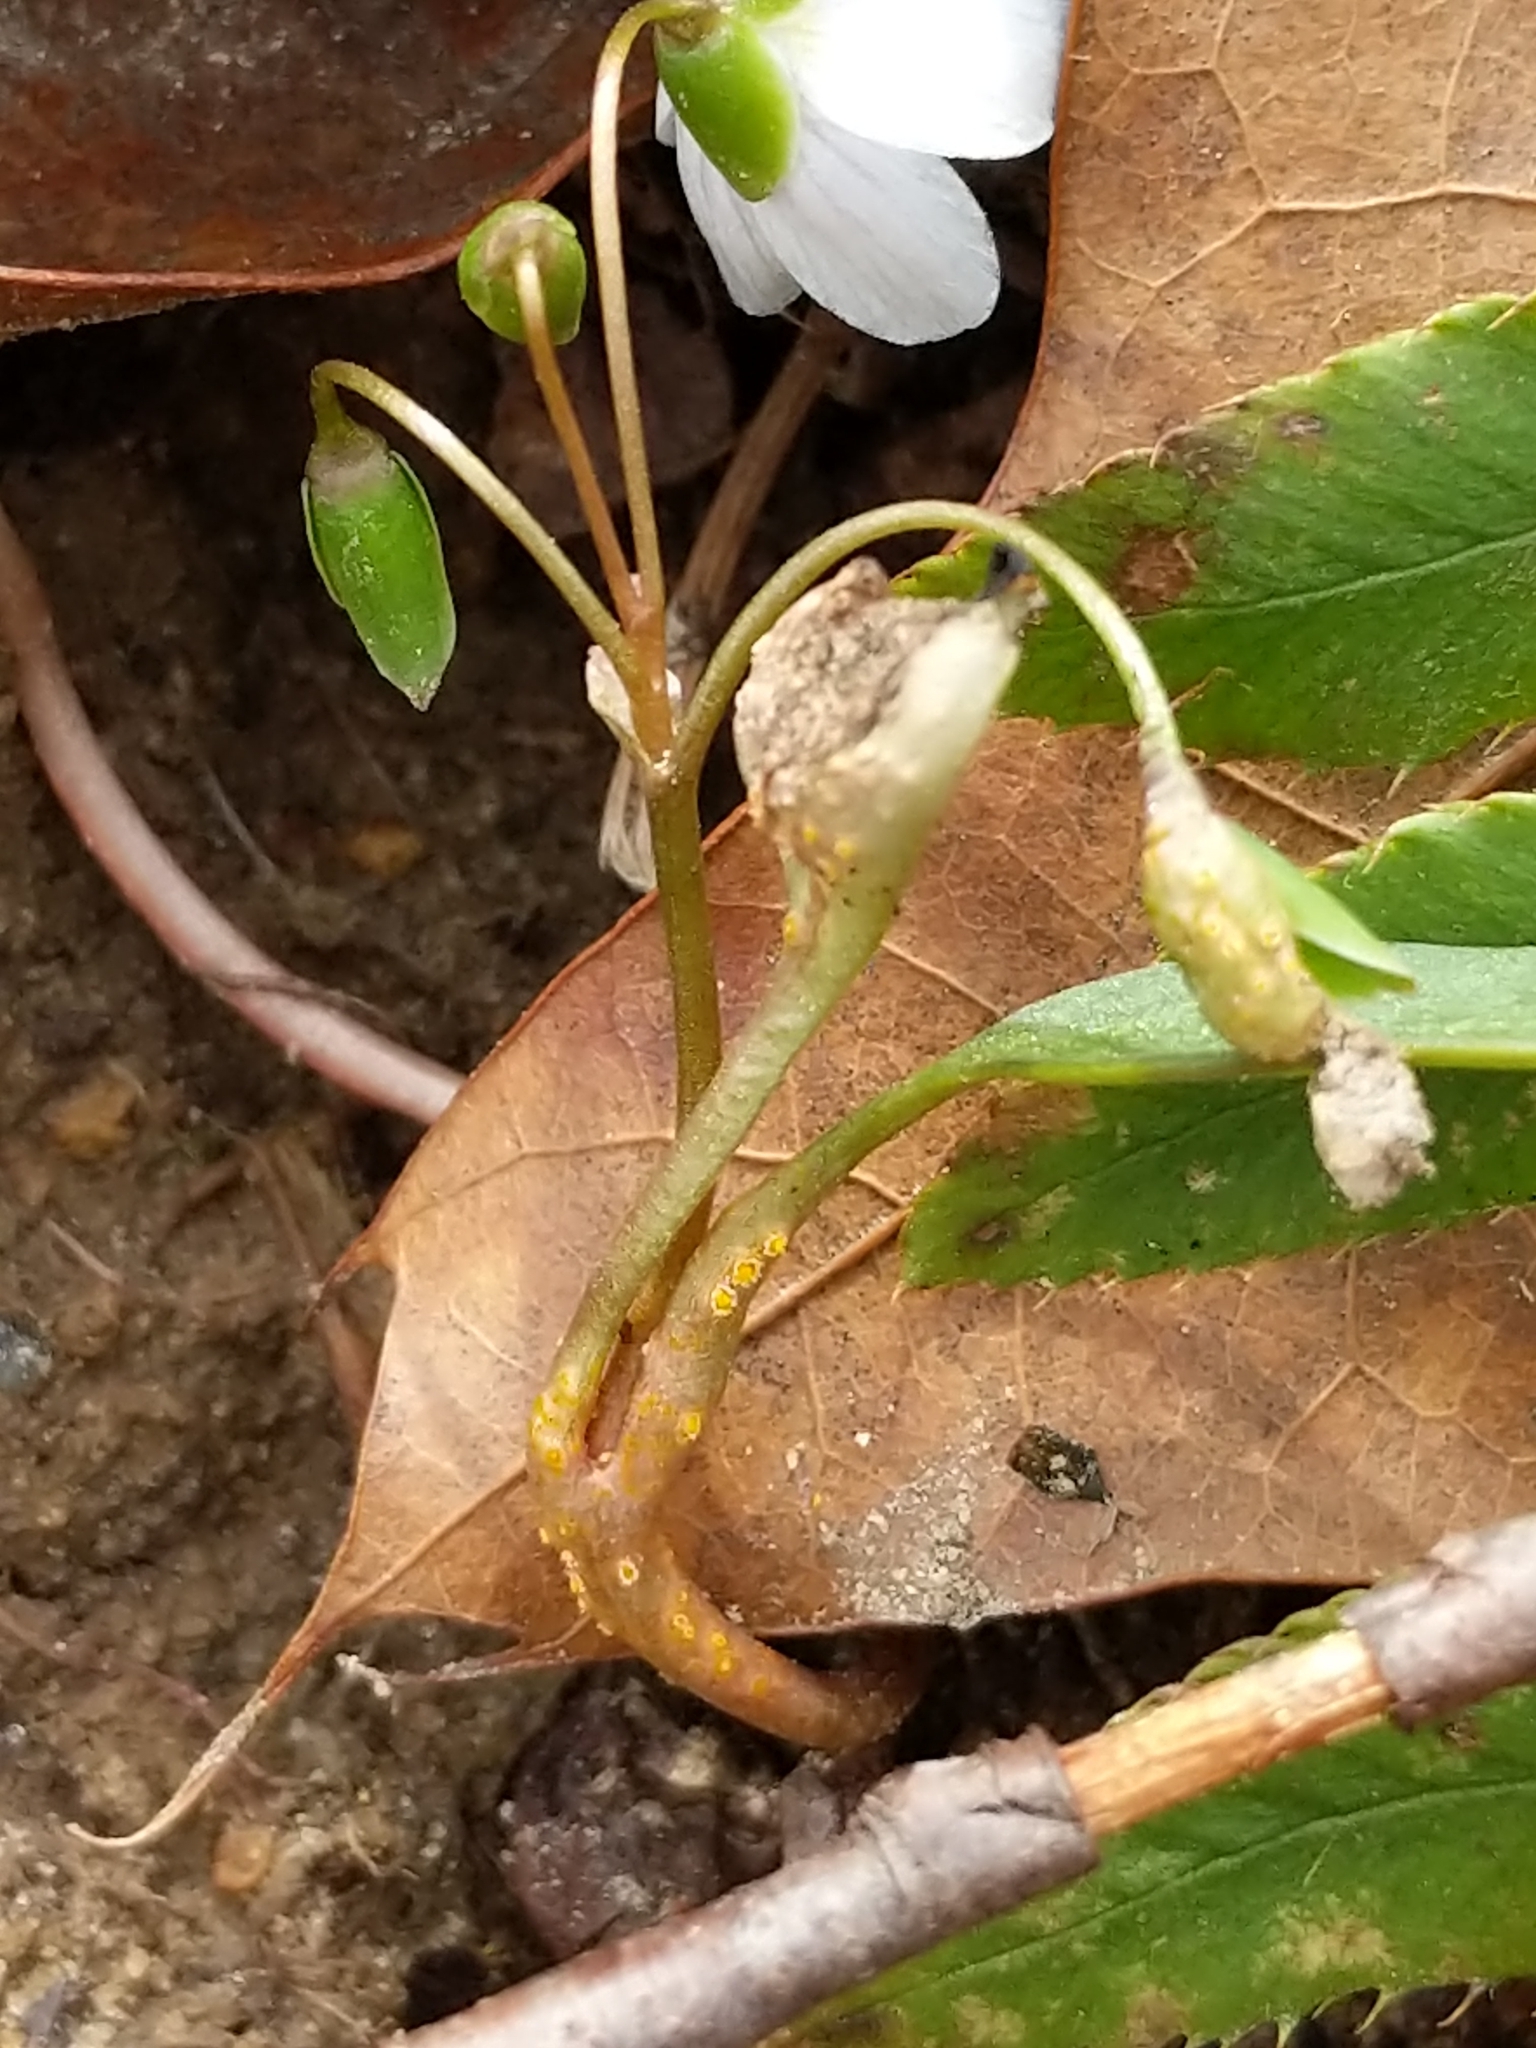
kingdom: Fungi
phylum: Basidiomycota
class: Pucciniomycetes
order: Pucciniales
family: Pucciniaceae
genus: Puccinia
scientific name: Puccinia mariae-wilsoniae
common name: Spring beauty rust
